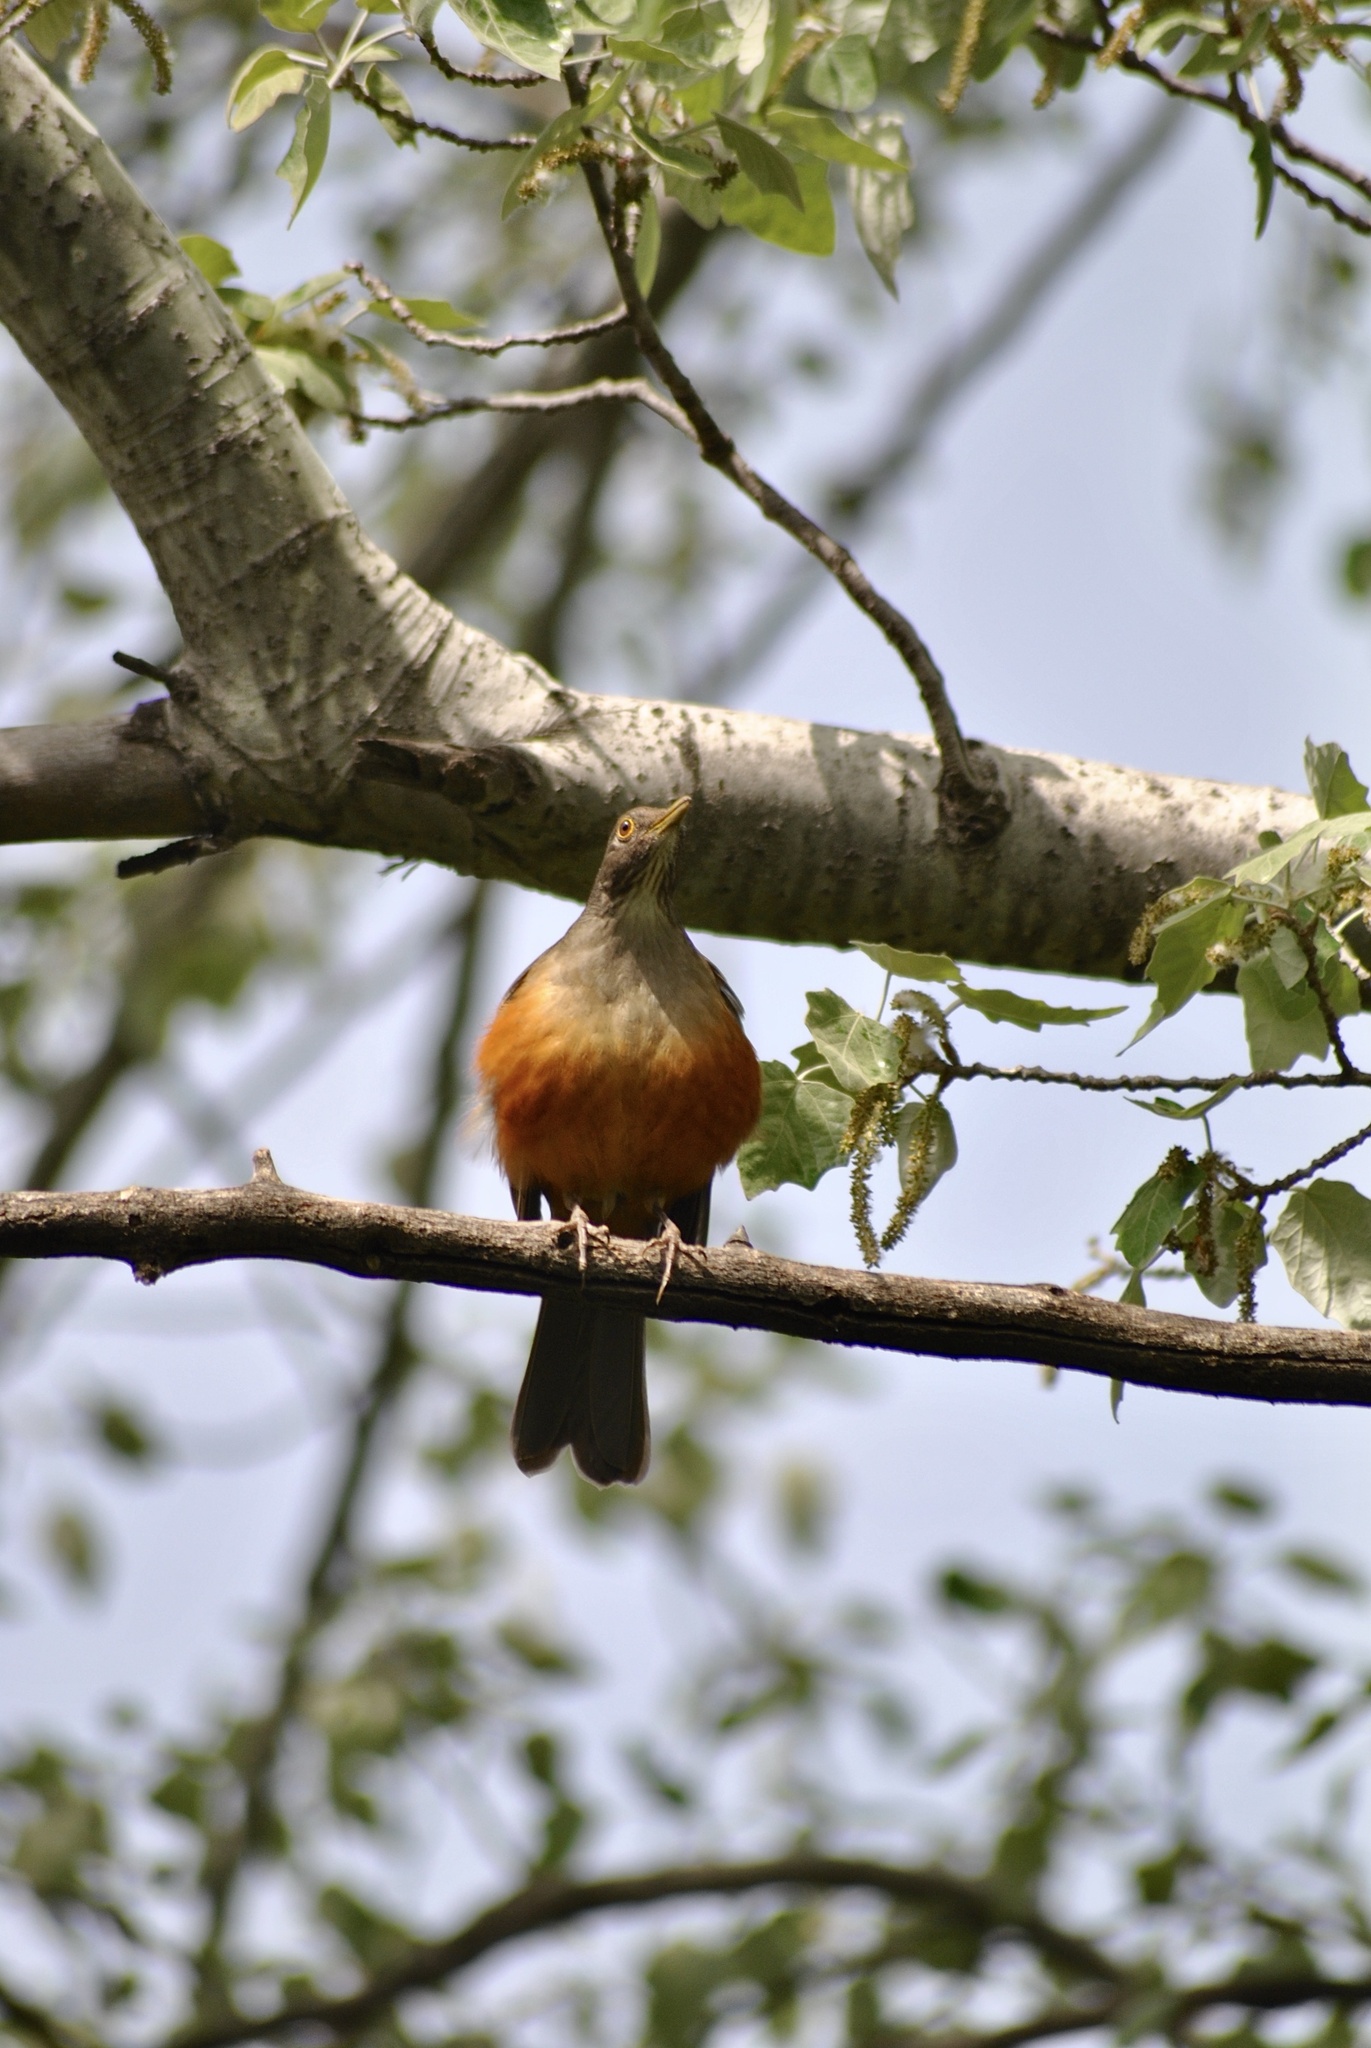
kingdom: Animalia
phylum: Chordata
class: Aves
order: Passeriformes
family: Turdidae
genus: Turdus
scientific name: Turdus rufiventris
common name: Rufous-bellied thrush
